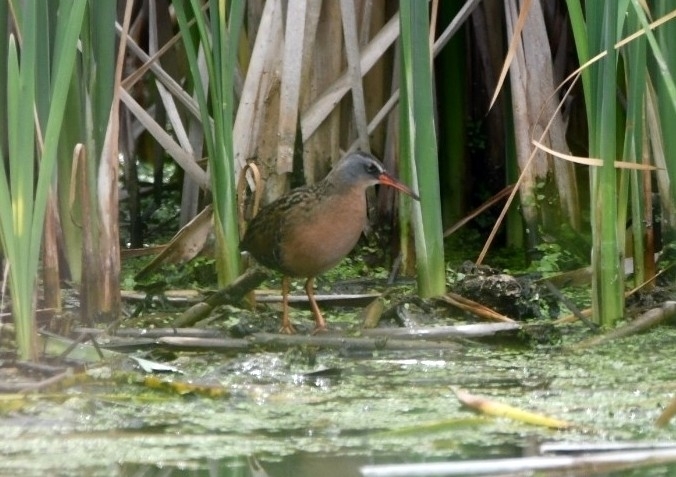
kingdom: Animalia
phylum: Chordata
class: Aves
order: Gruiformes
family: Rallidae
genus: Rallus
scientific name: Rallus limicola
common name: Virginia rail
